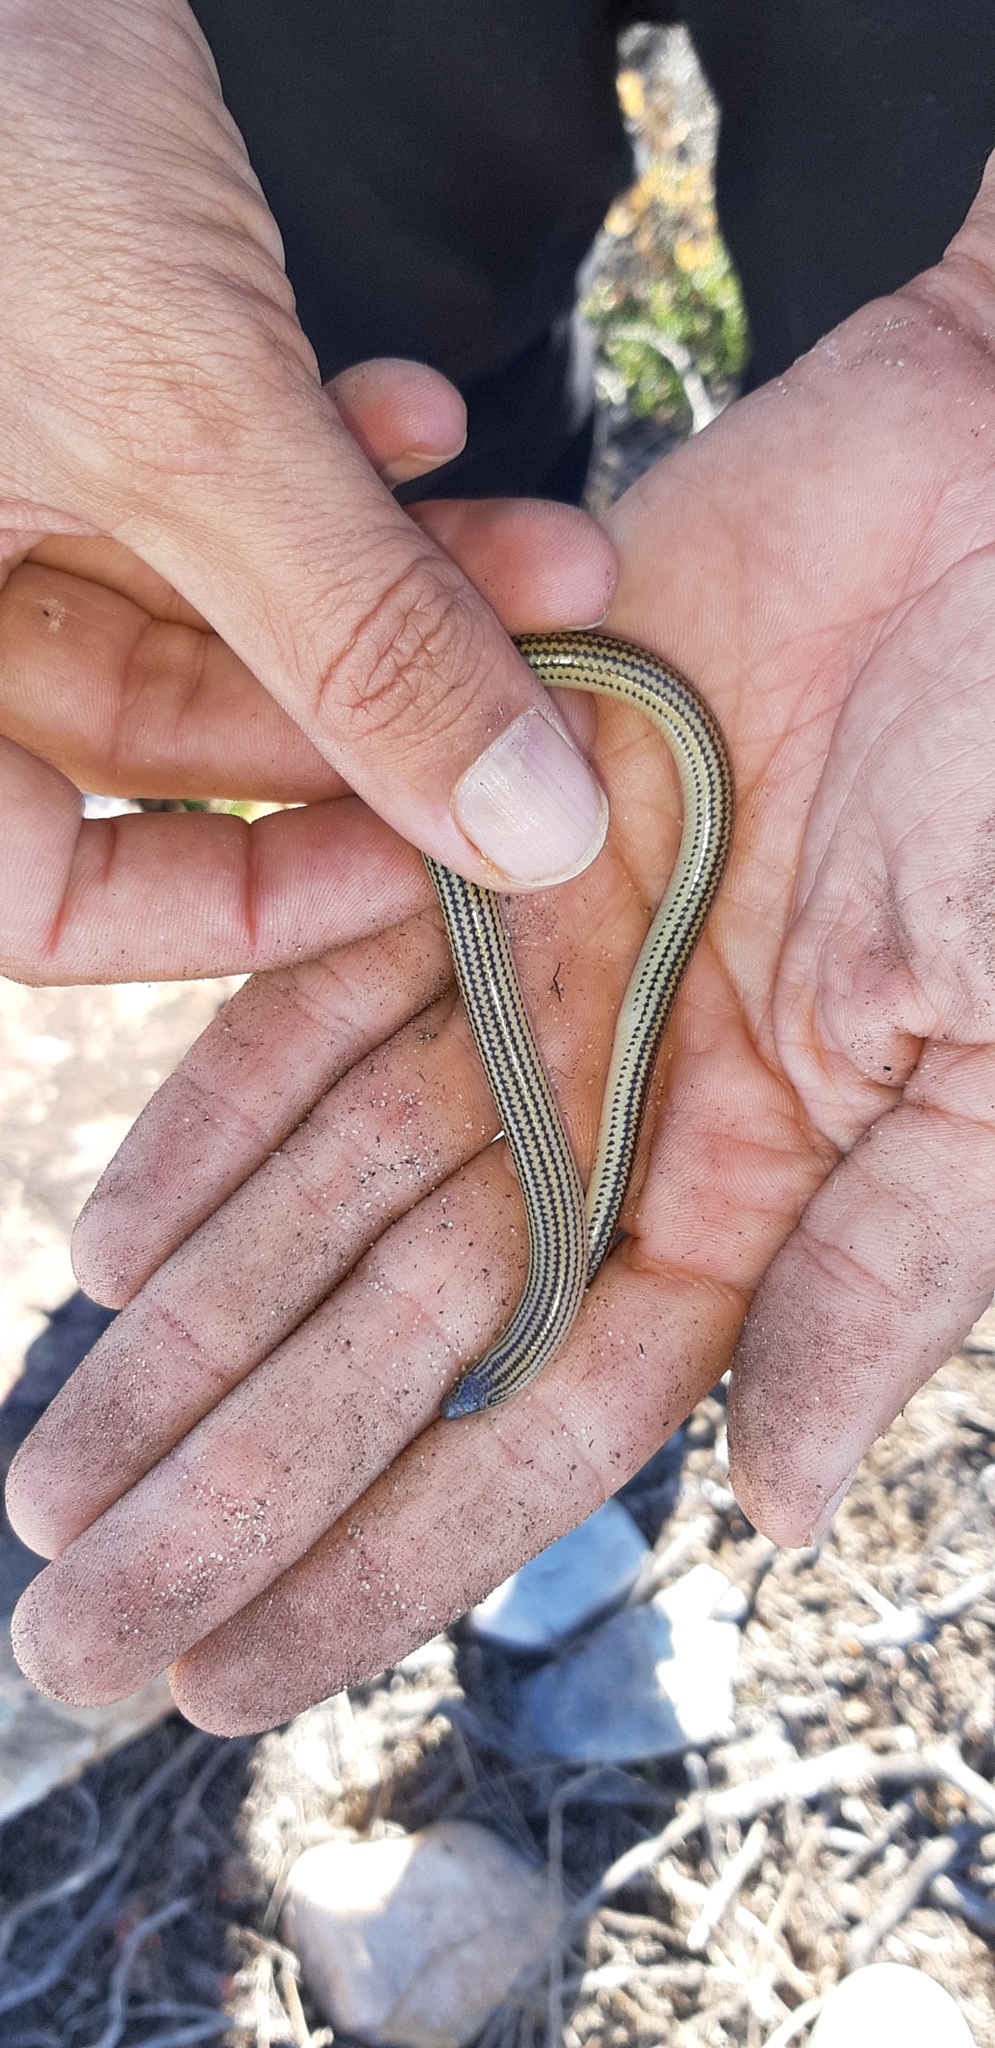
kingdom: Animalia
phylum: Chordata
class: Squamata
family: Scincidae
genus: Acontias
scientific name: Acontias meleagris
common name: Cape legless skink
